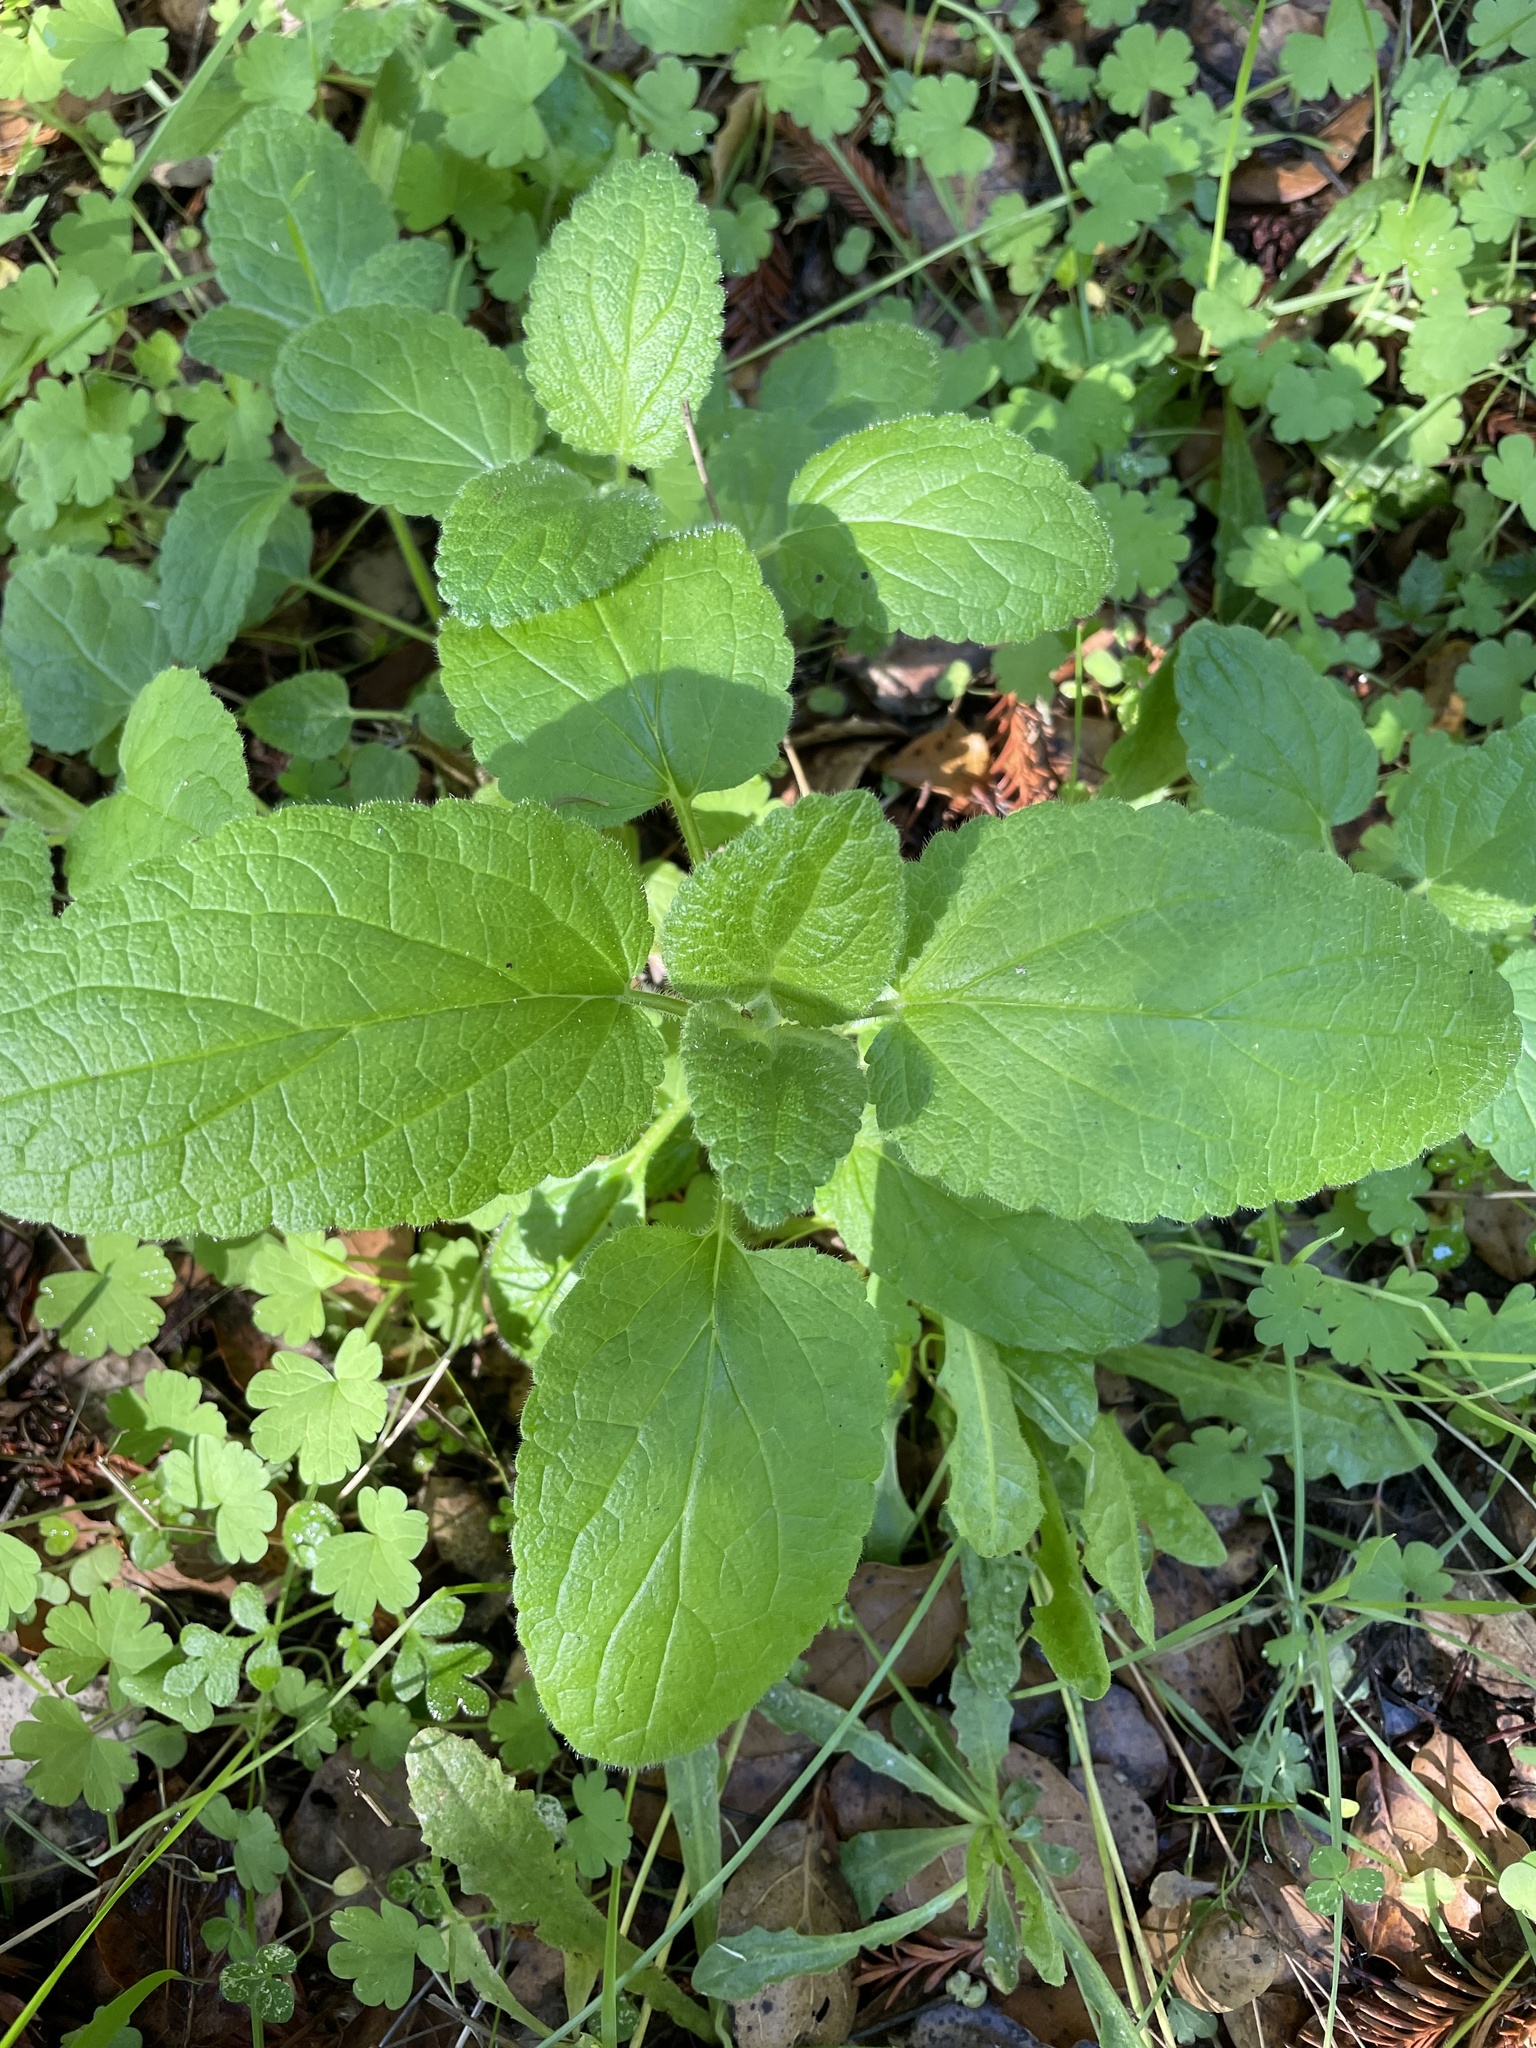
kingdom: Plantae
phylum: Tracheophyta
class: Magnoliopsida
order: Lamiales
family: Lamiaceae
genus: Stachys
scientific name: Stachys bullata
